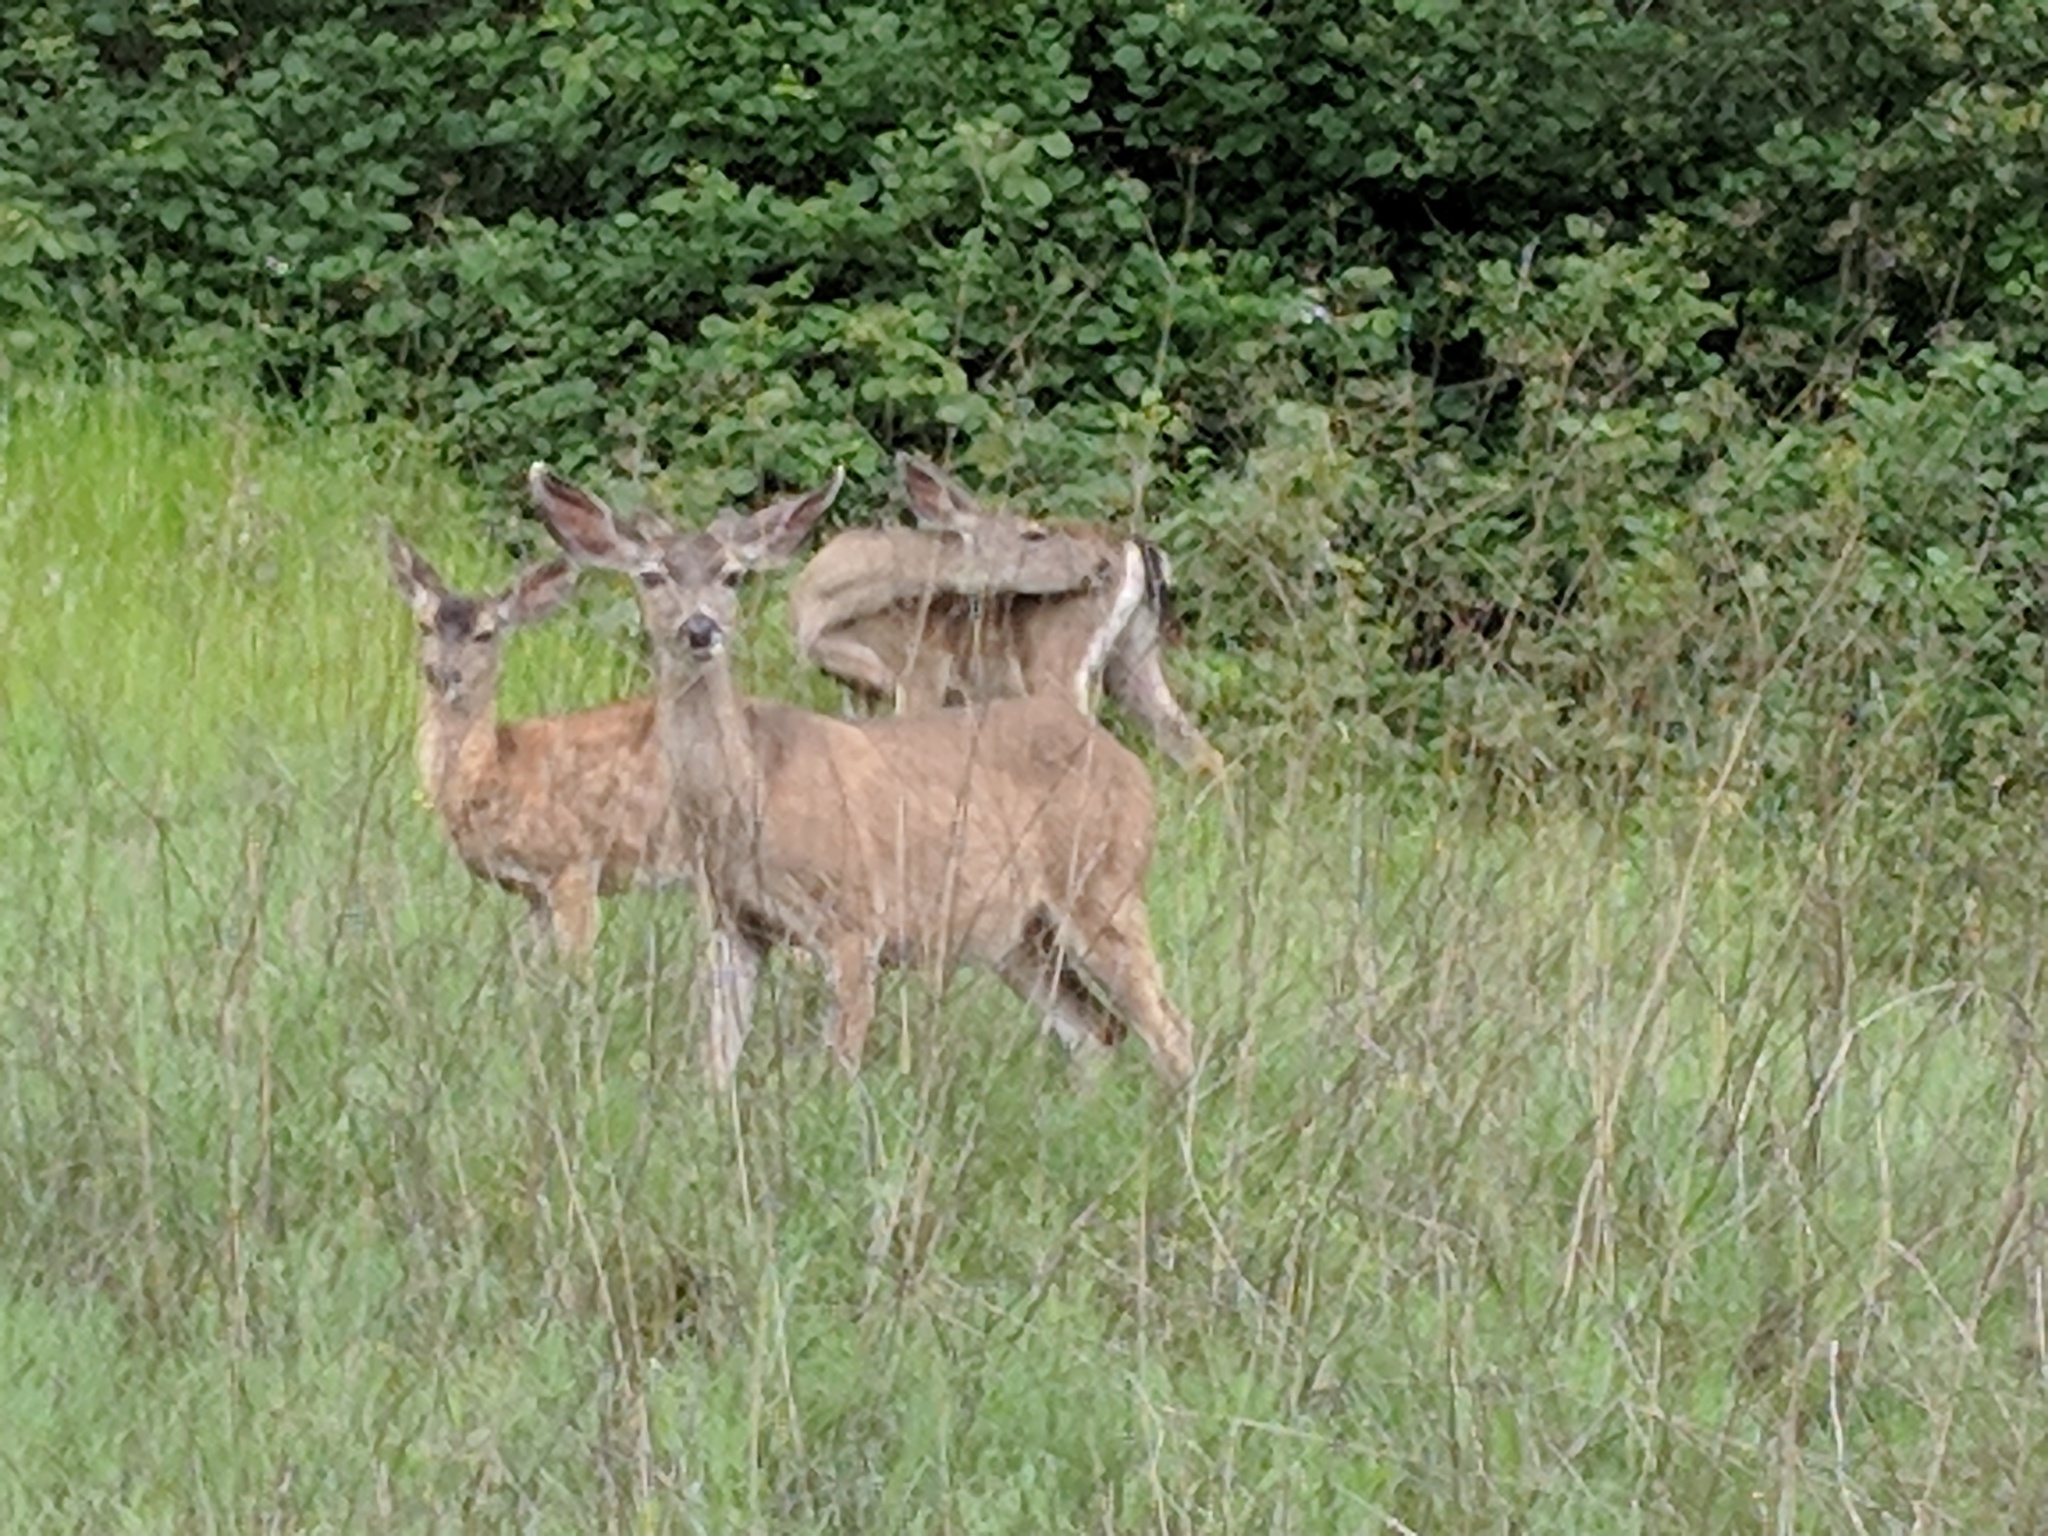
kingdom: Animalia
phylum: Chordata
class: Mammalia
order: Artiodactyla
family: Cervidae
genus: Odocoileus
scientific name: Odocoileus hemionus
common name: Mule deer
